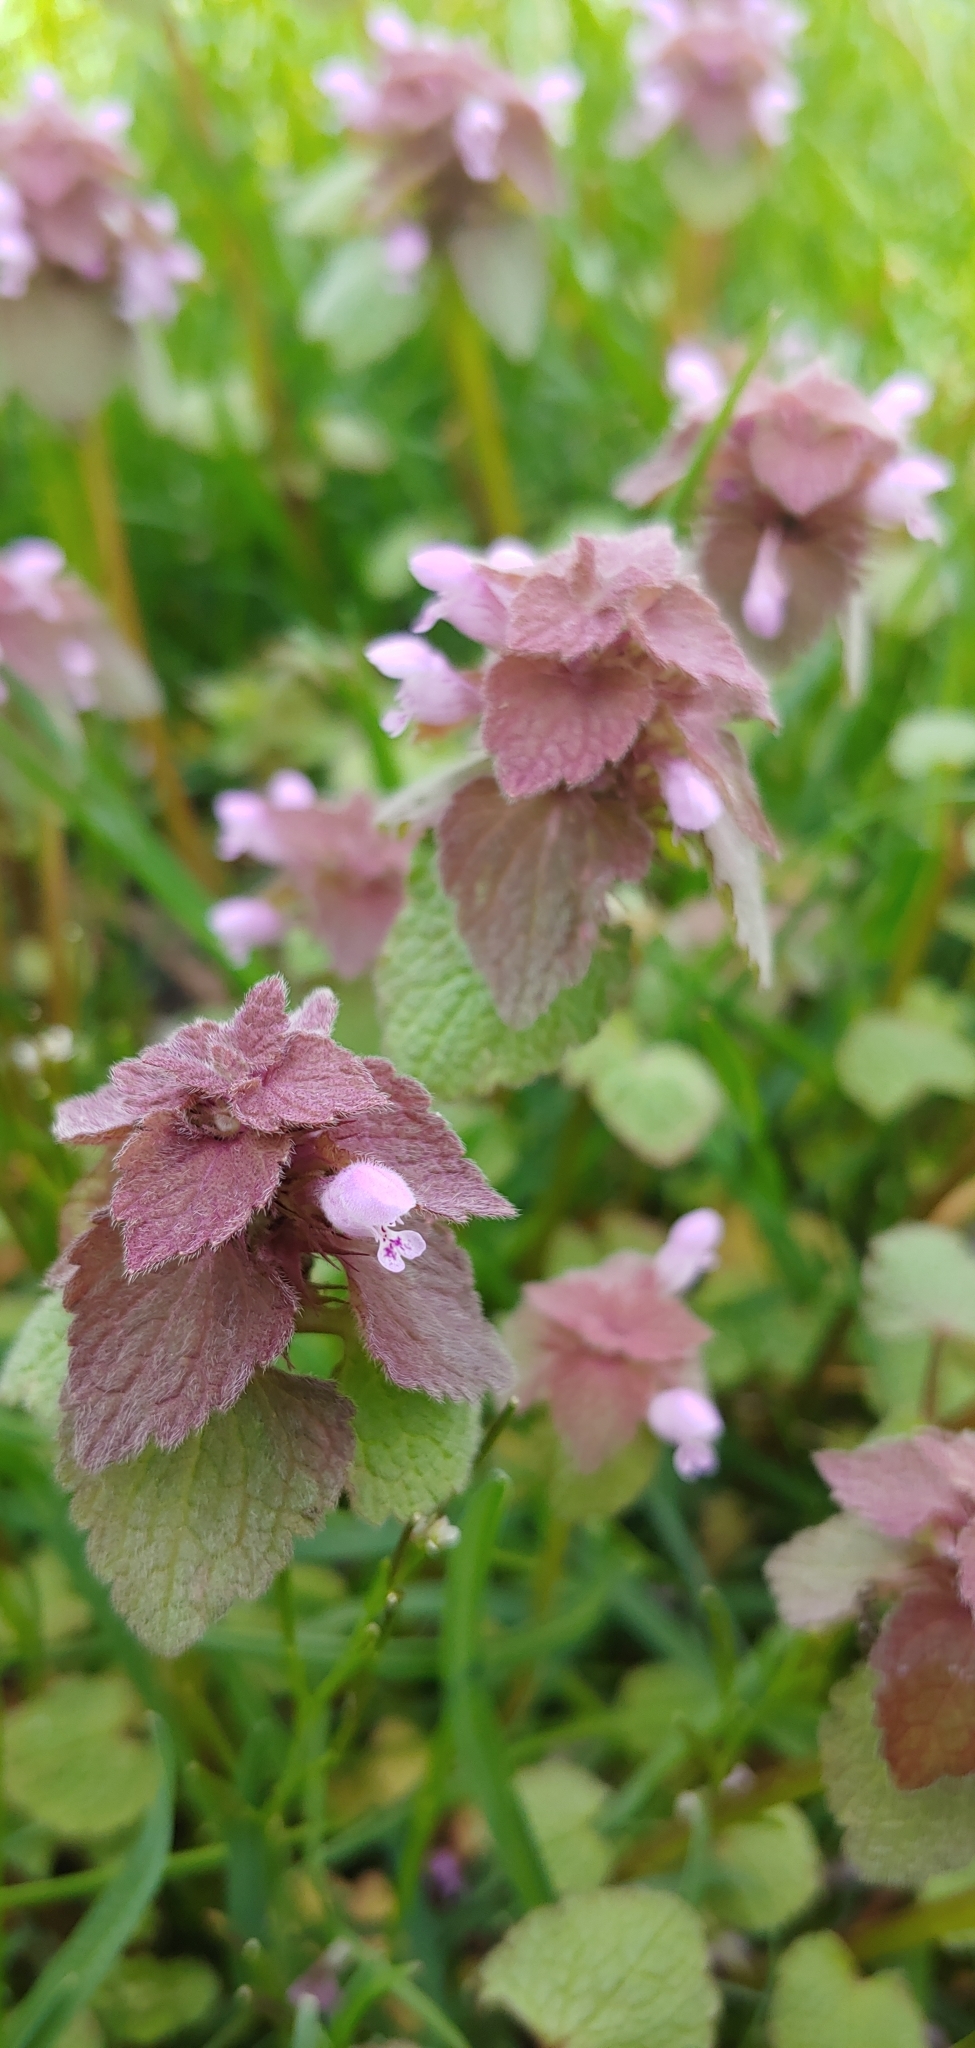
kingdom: Plantae
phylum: Tracheophyta
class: Magnoliopsida
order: Lamiales
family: Lamiaceae
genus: Lamium
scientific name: Lamium purpureum
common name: Red dead-nettle
